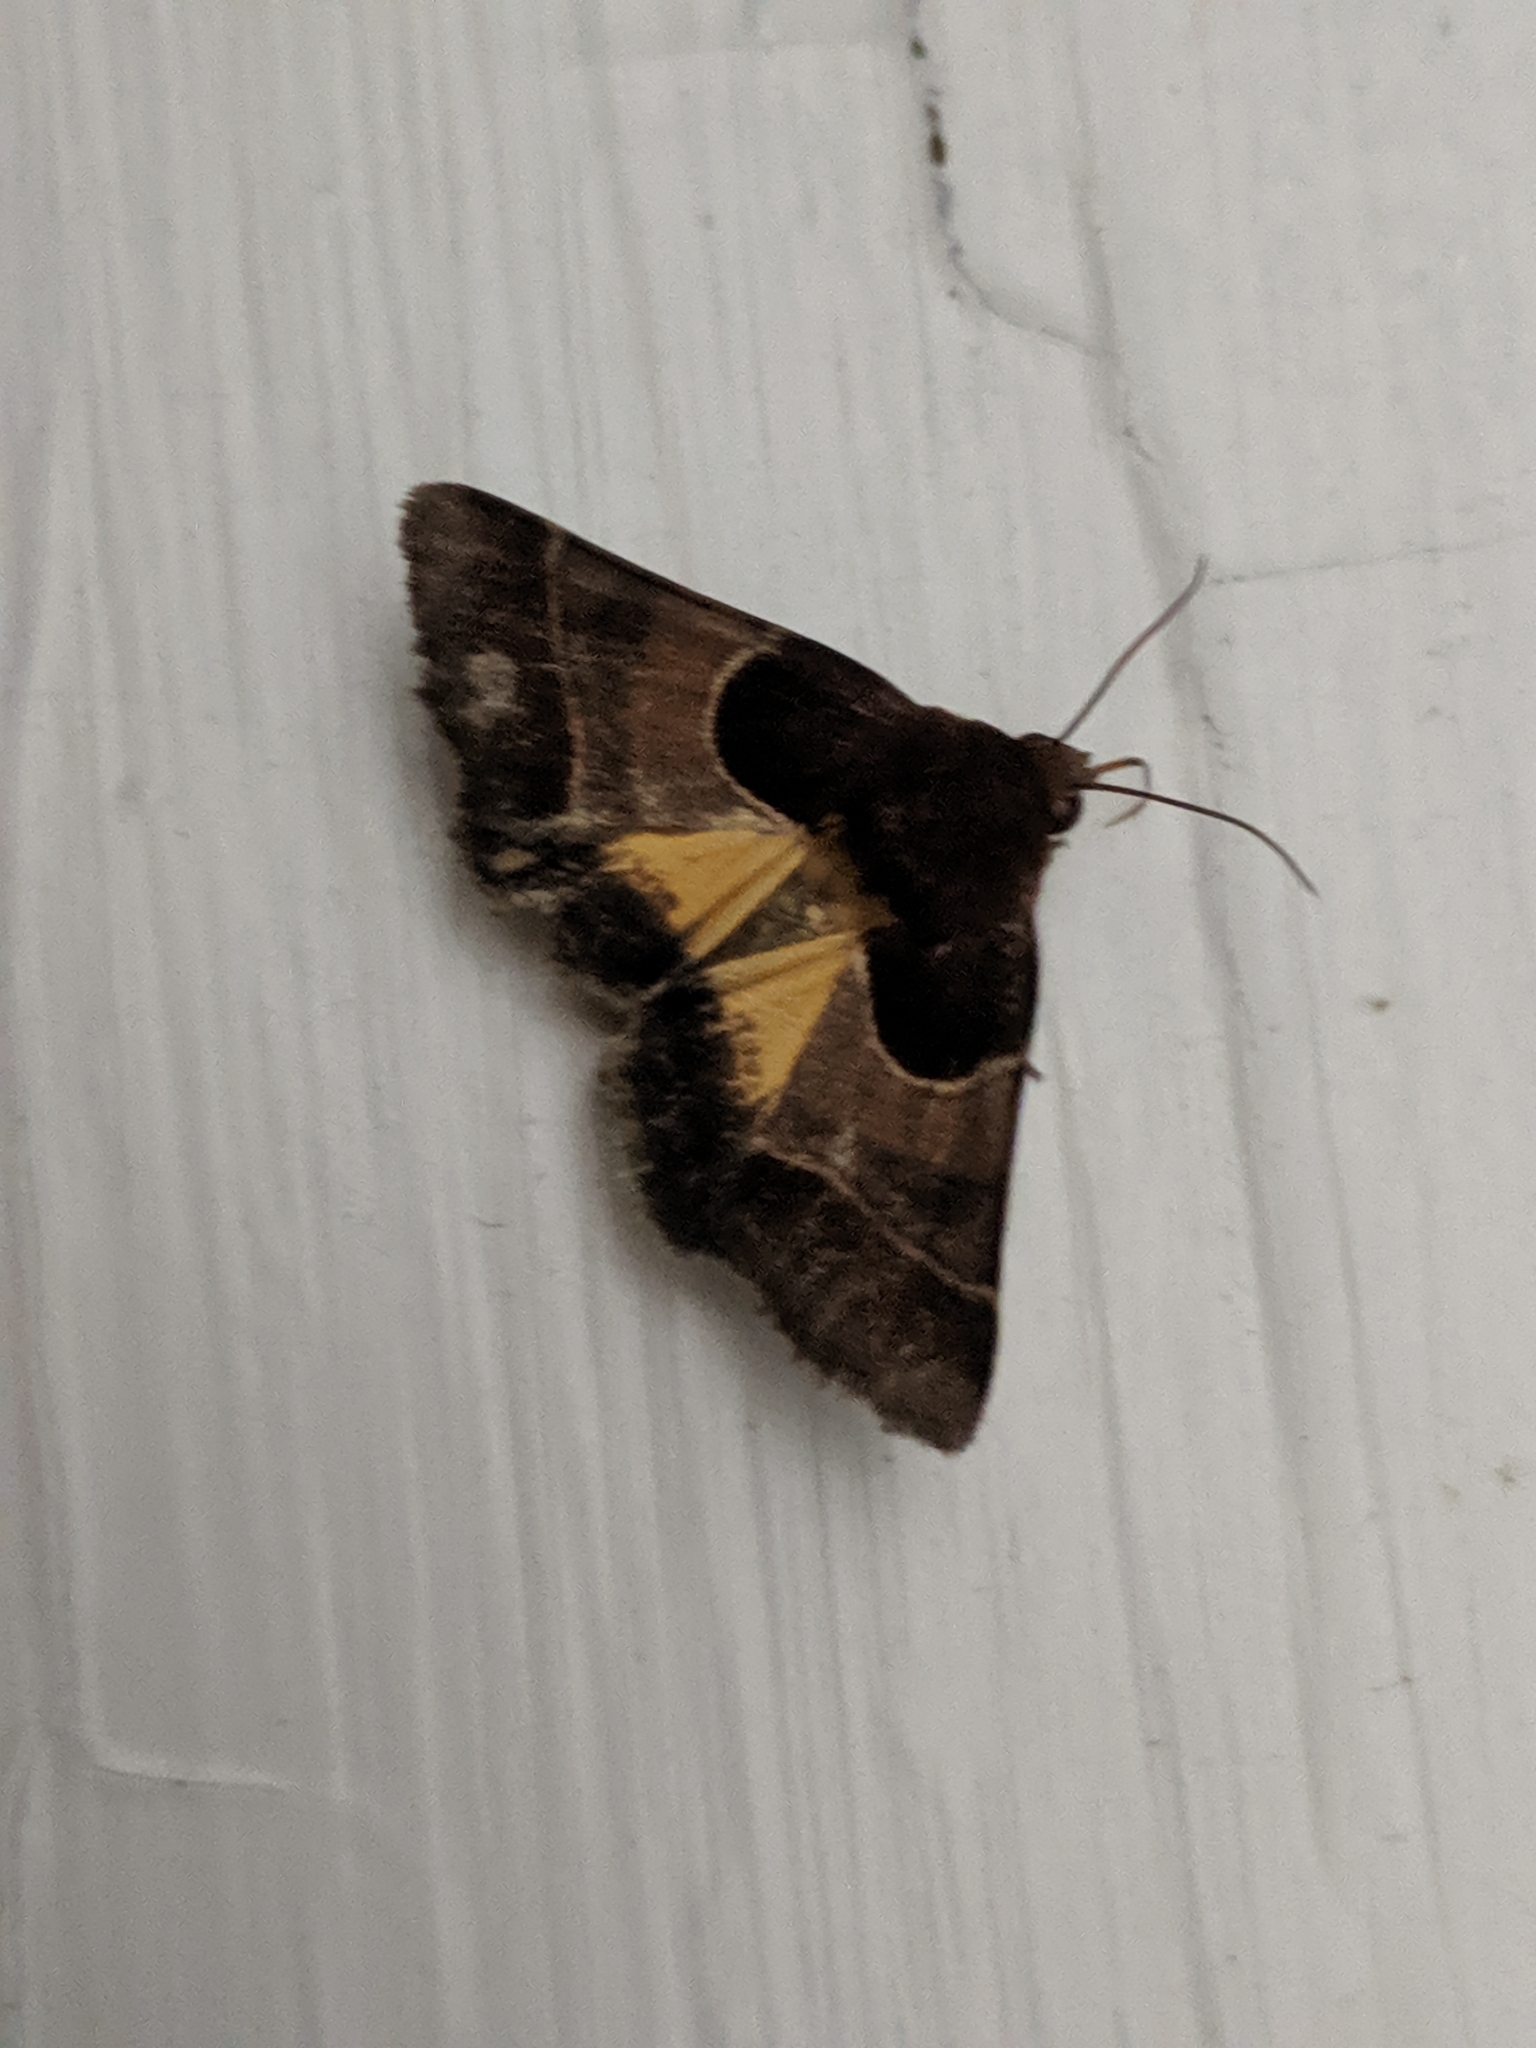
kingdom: Animalia
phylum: Arthropoda
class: Insecta
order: Lepidoptera
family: Noctuidae
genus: Schinia
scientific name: Schinia arcigera
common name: Arcigera flower moth
